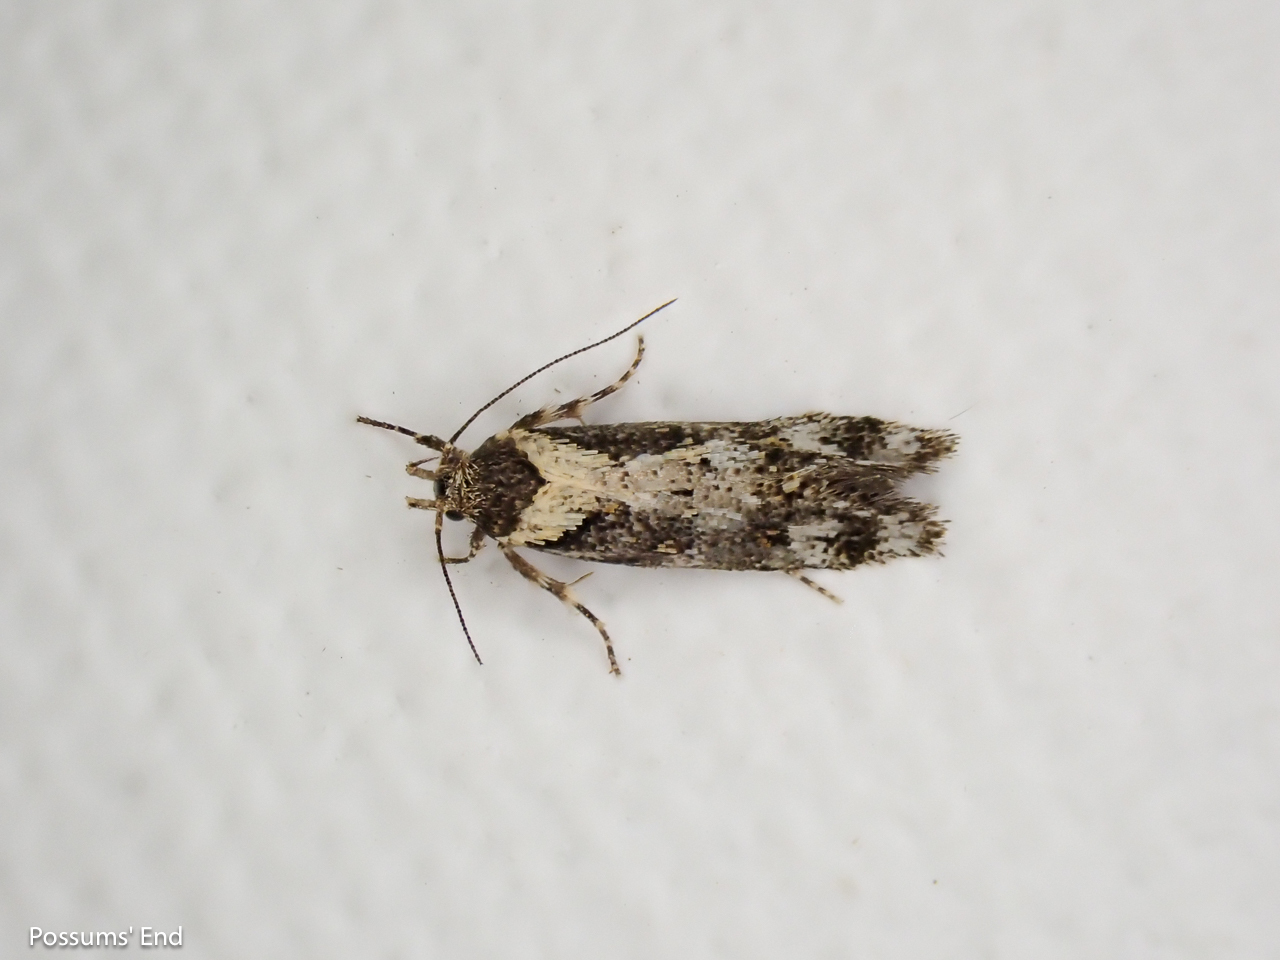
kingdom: Animalia
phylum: Arthropoda
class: Insecta
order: Lepidoptera
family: Oecophoridae
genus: Tingena
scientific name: Tingena lassa
